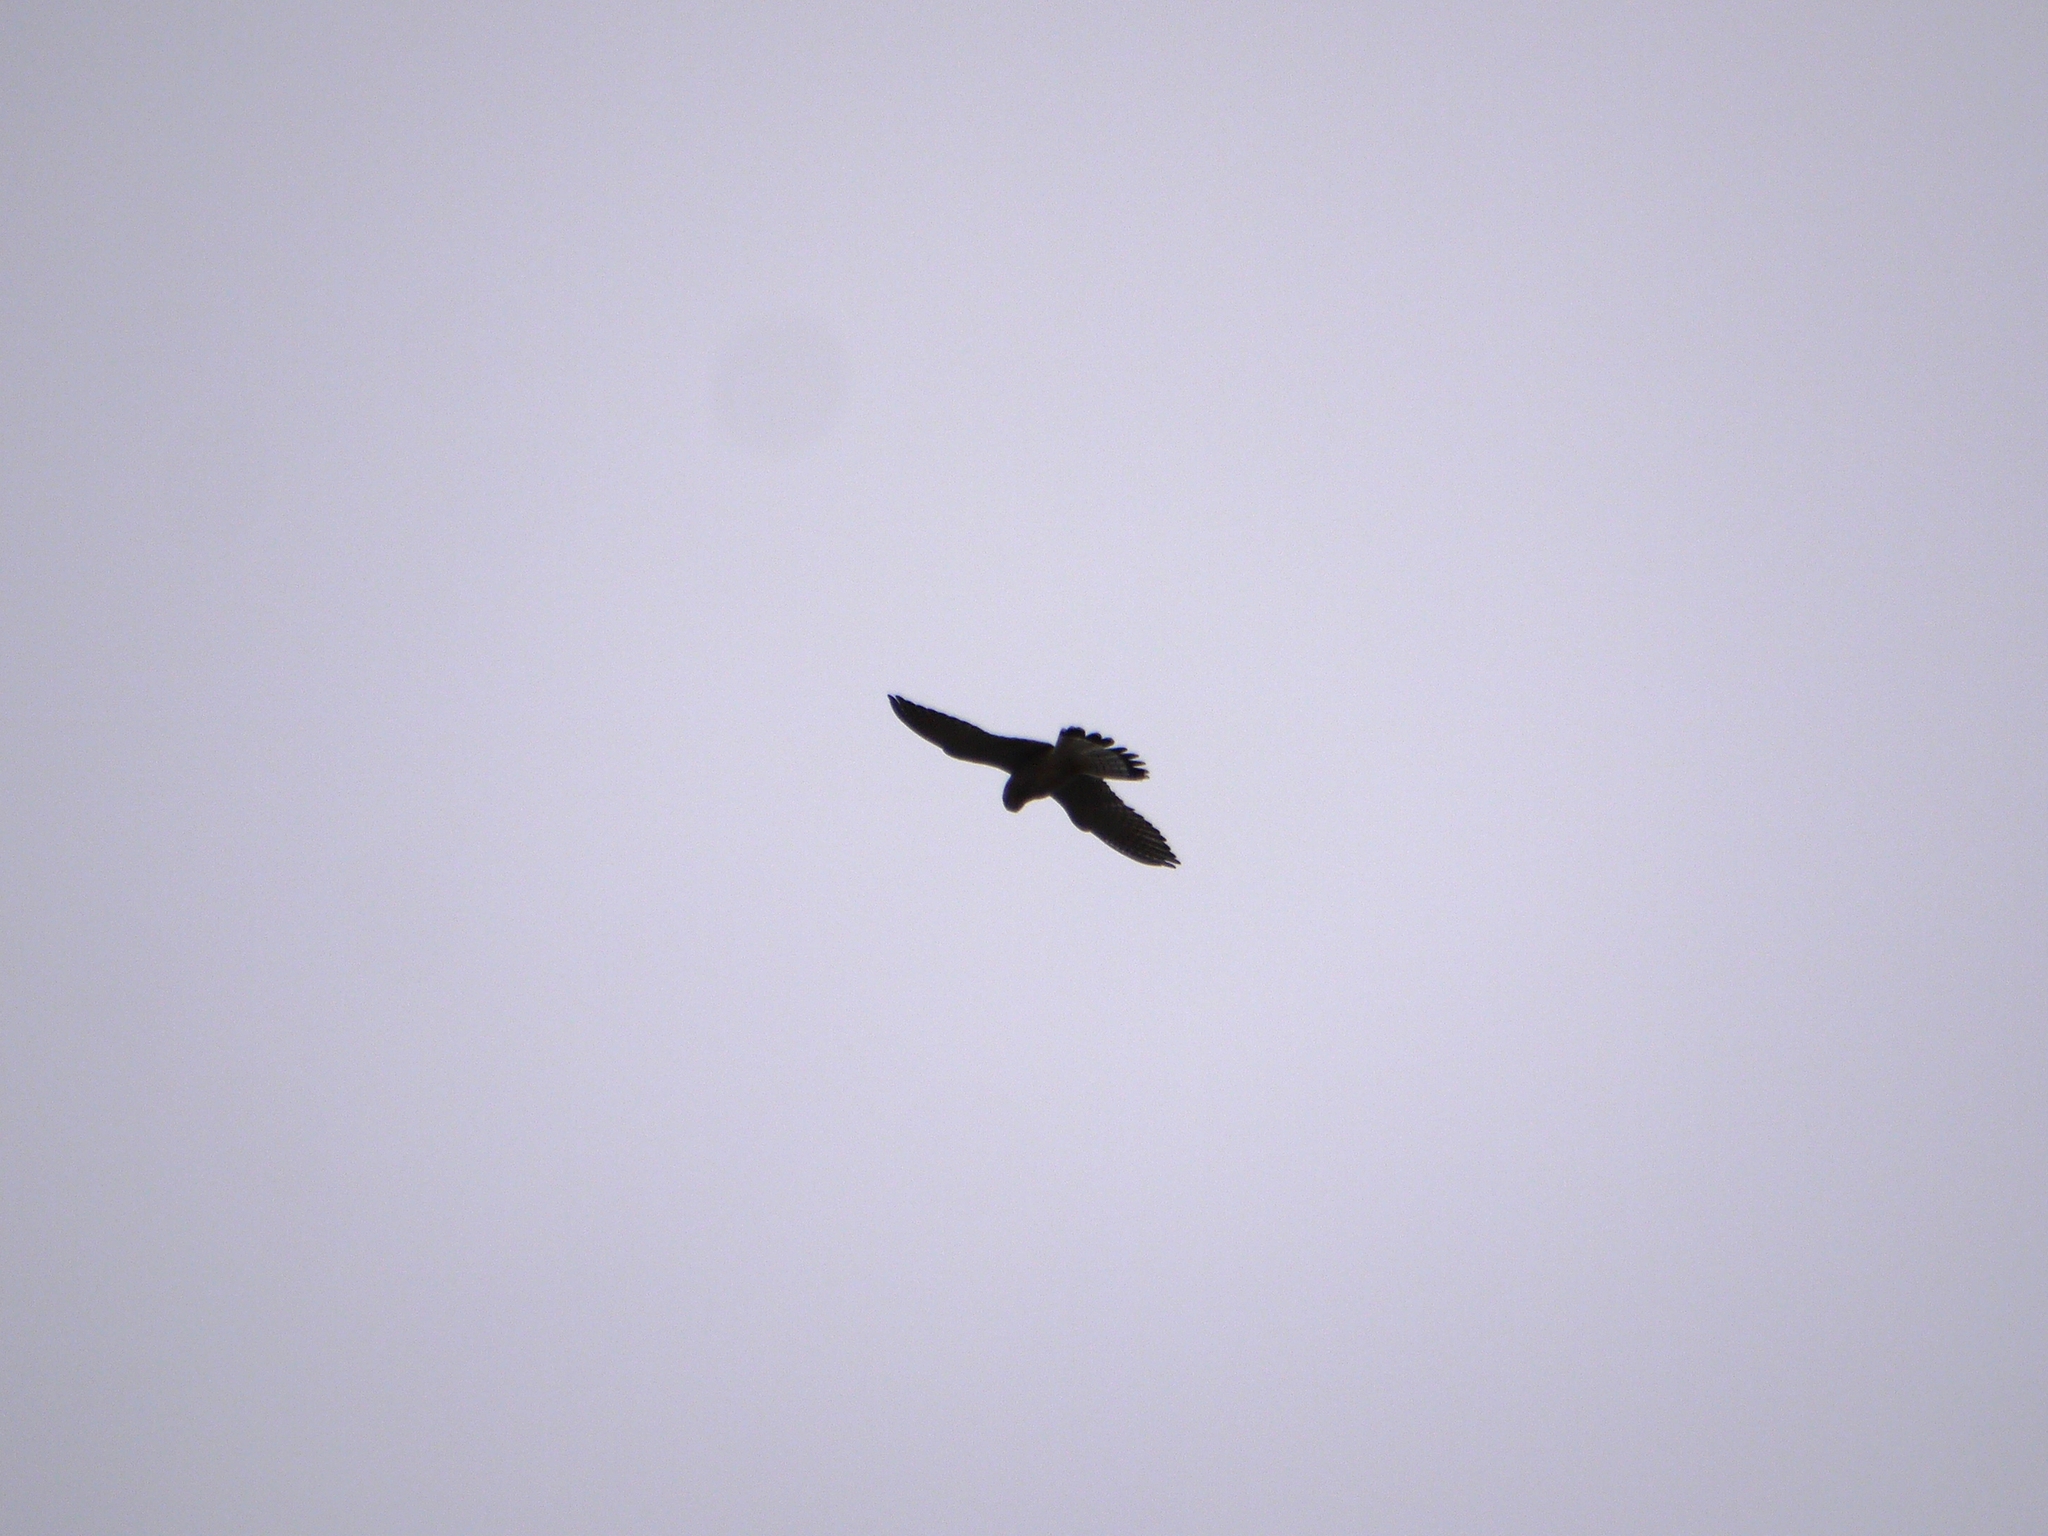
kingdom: Animalia
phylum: Chordata
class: Aves
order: Falconiformes
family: Falconidae
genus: Falco
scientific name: Falco tinnunculus
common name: Common kestrel
